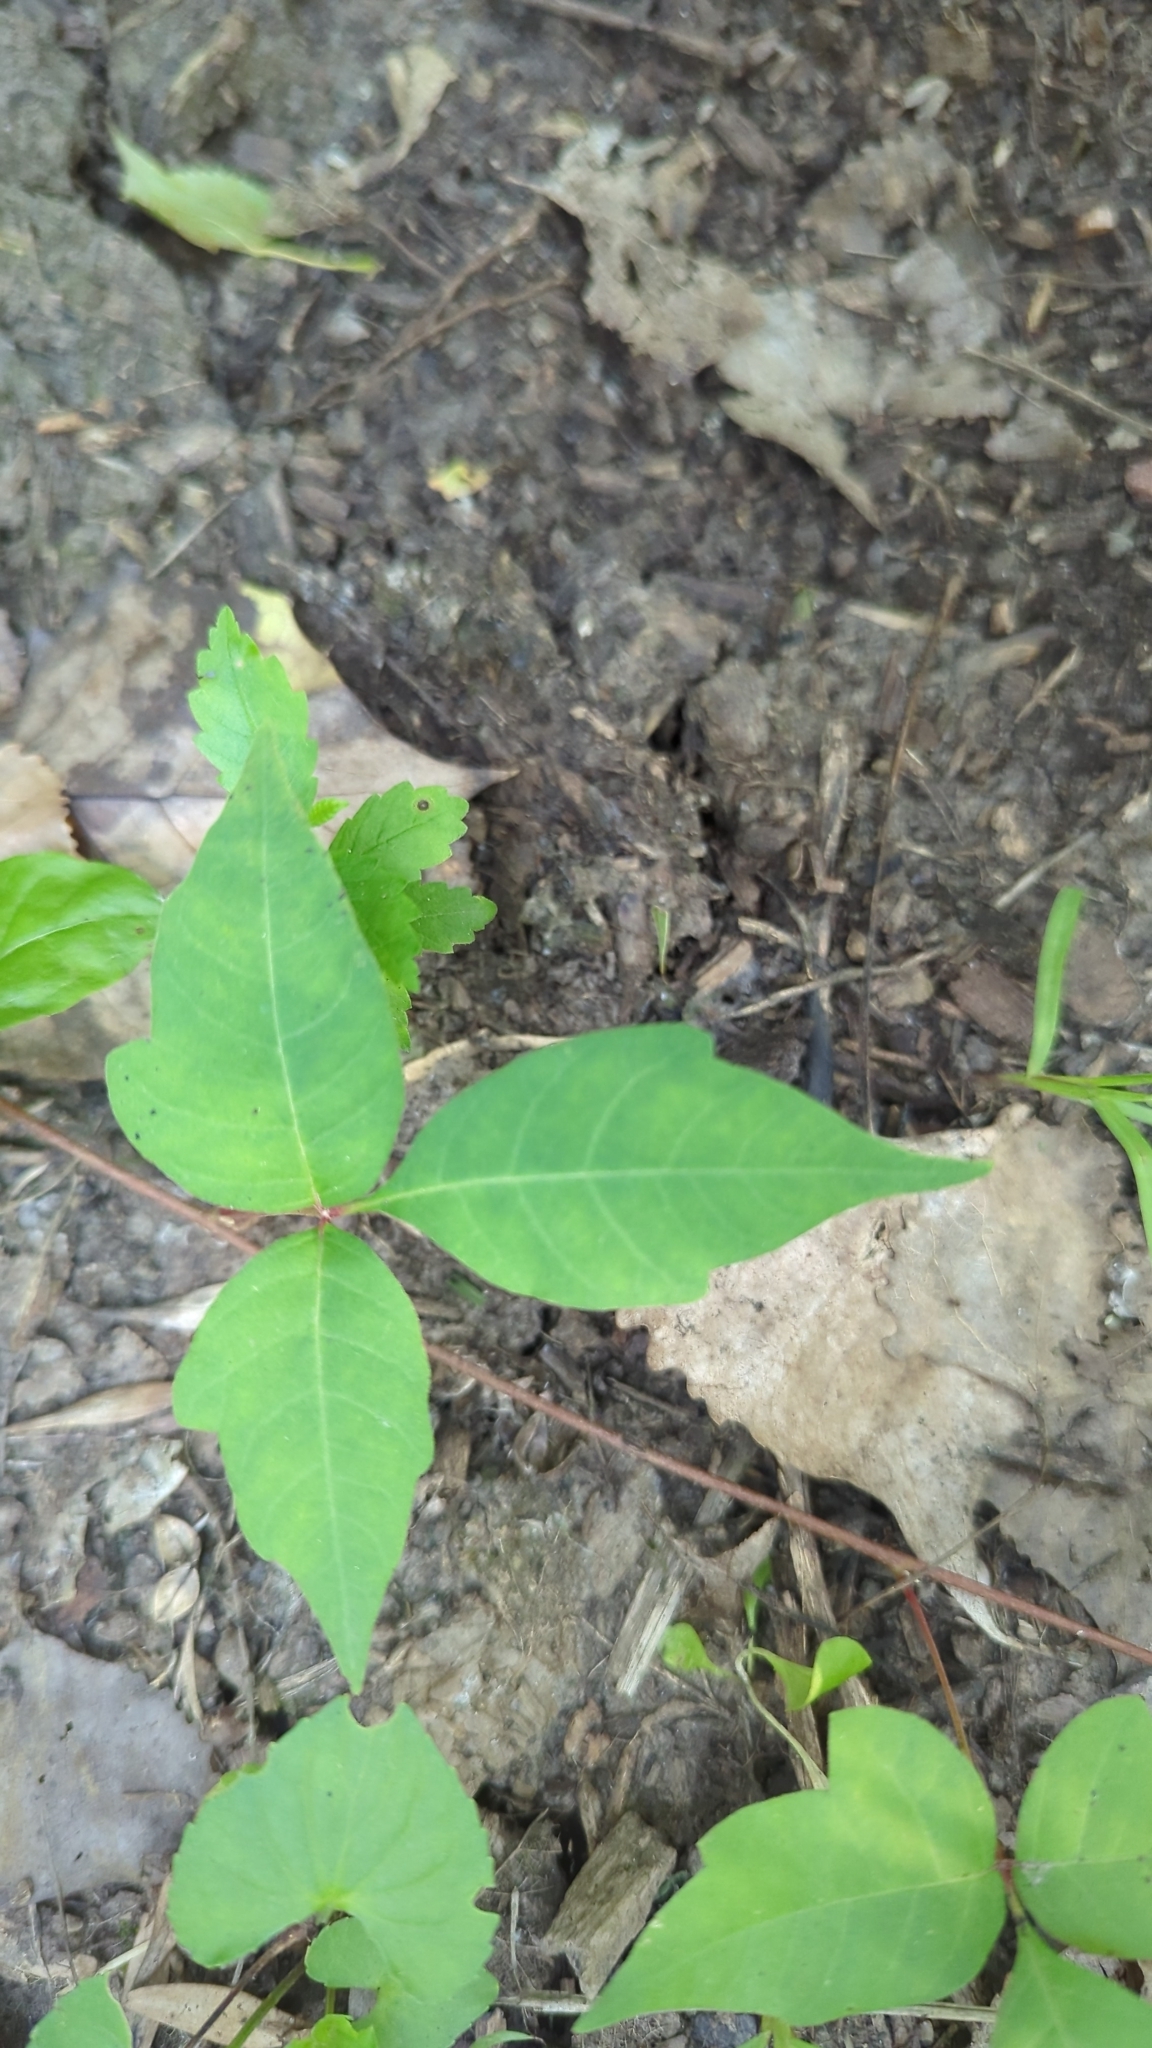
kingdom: Plantae
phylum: Tracheophyta
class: Magnoliopsida
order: Sapindales
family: Anacardiaceae
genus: Toxicodendron
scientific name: Toxicodendron radicans
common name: Poison ivy
